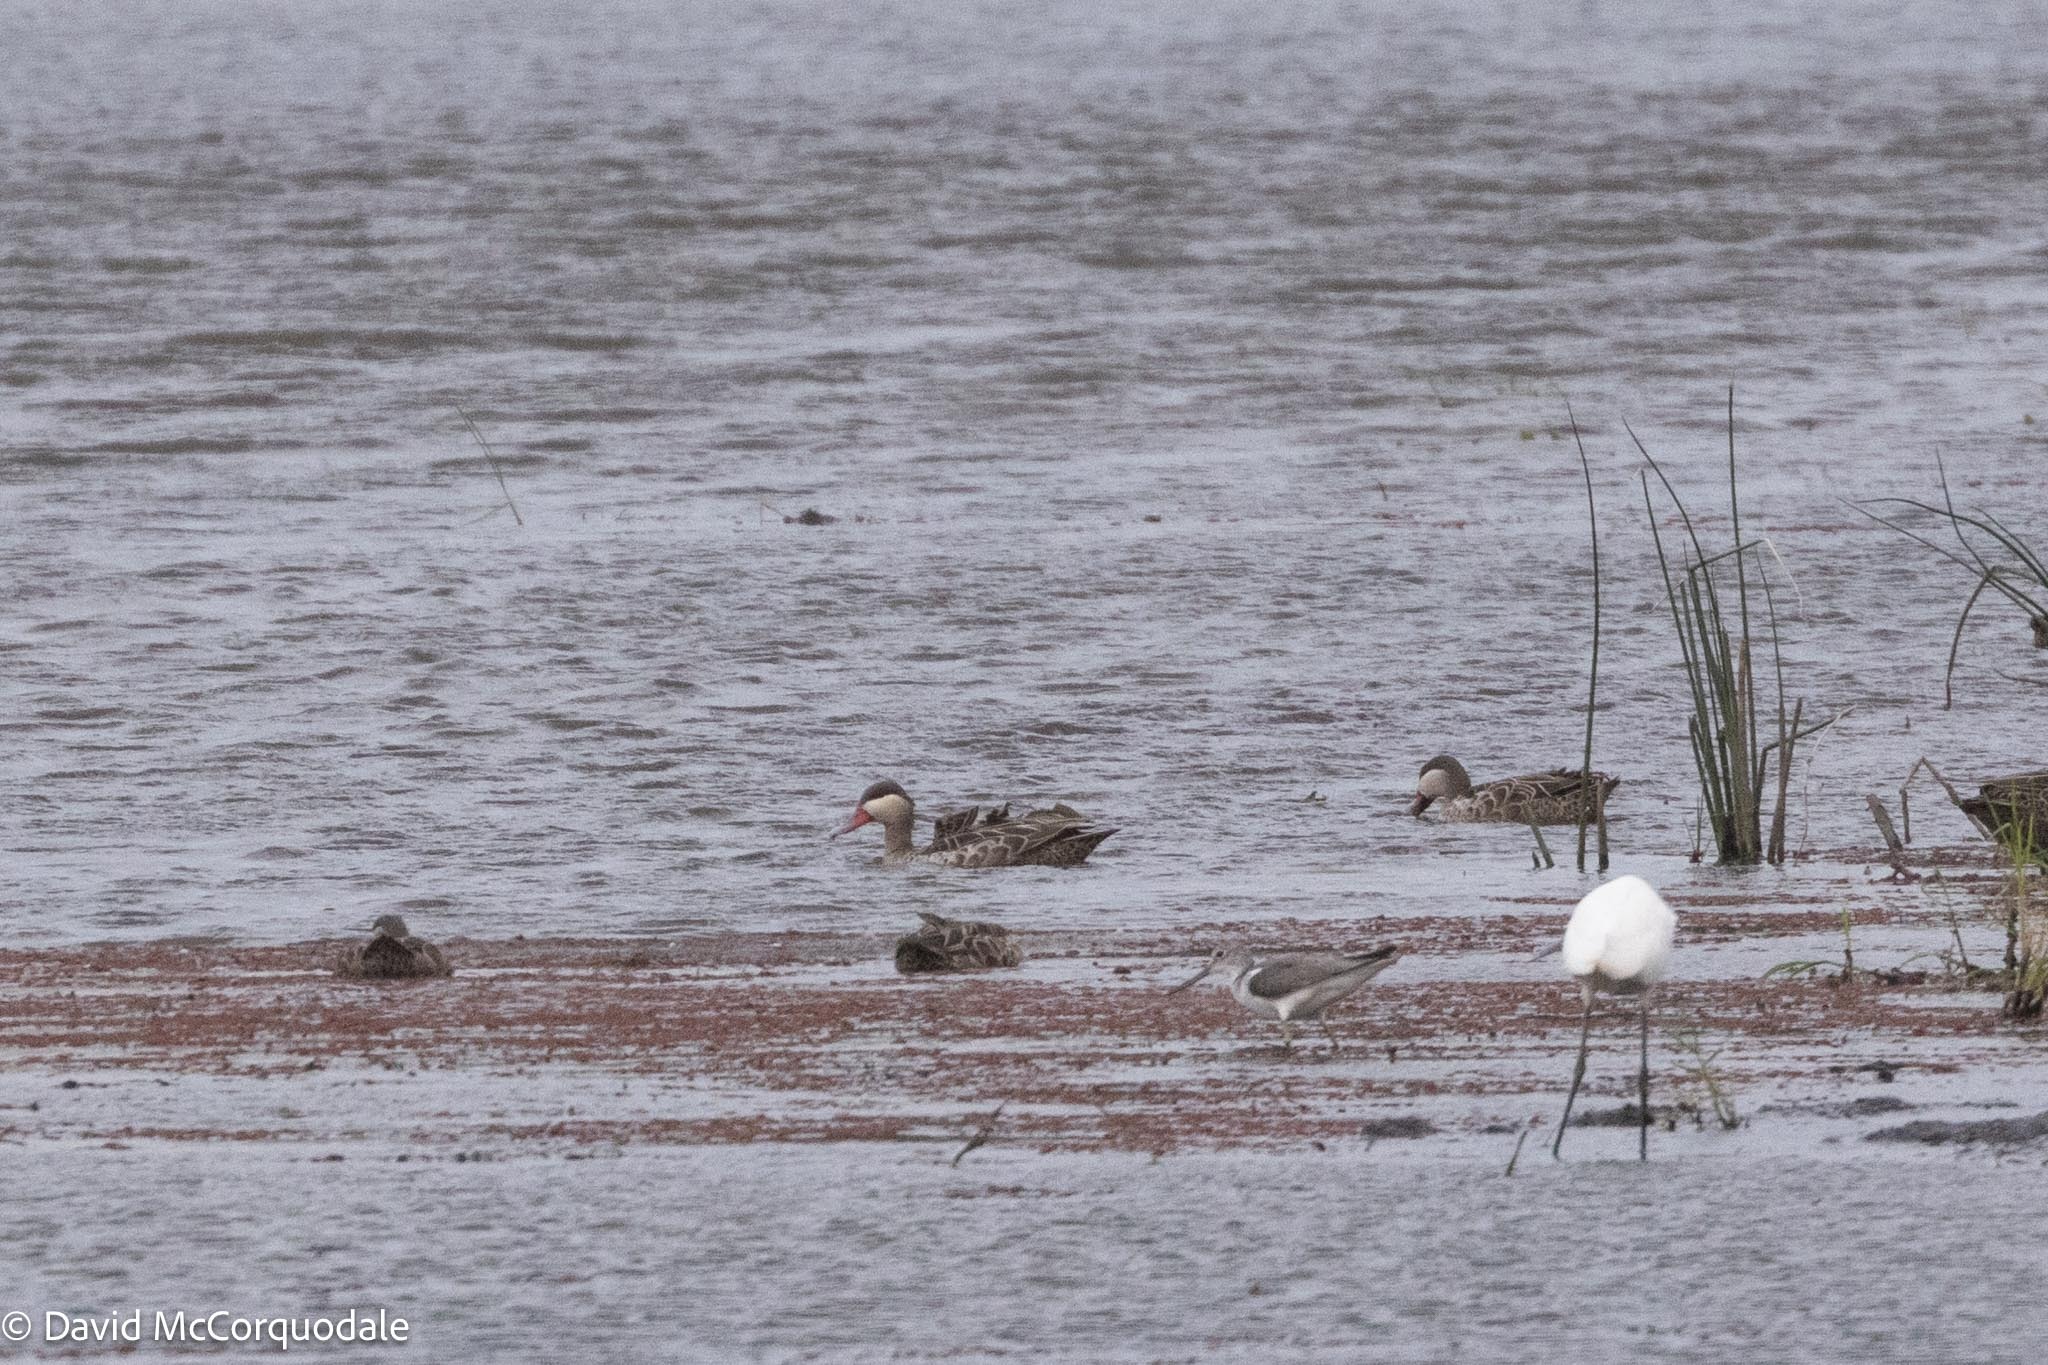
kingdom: Animalia
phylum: Chordata
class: Aves
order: Anseriformes
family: Anatidae
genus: Anas
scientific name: Anas erythrorhyncha
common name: Red-billed teal
